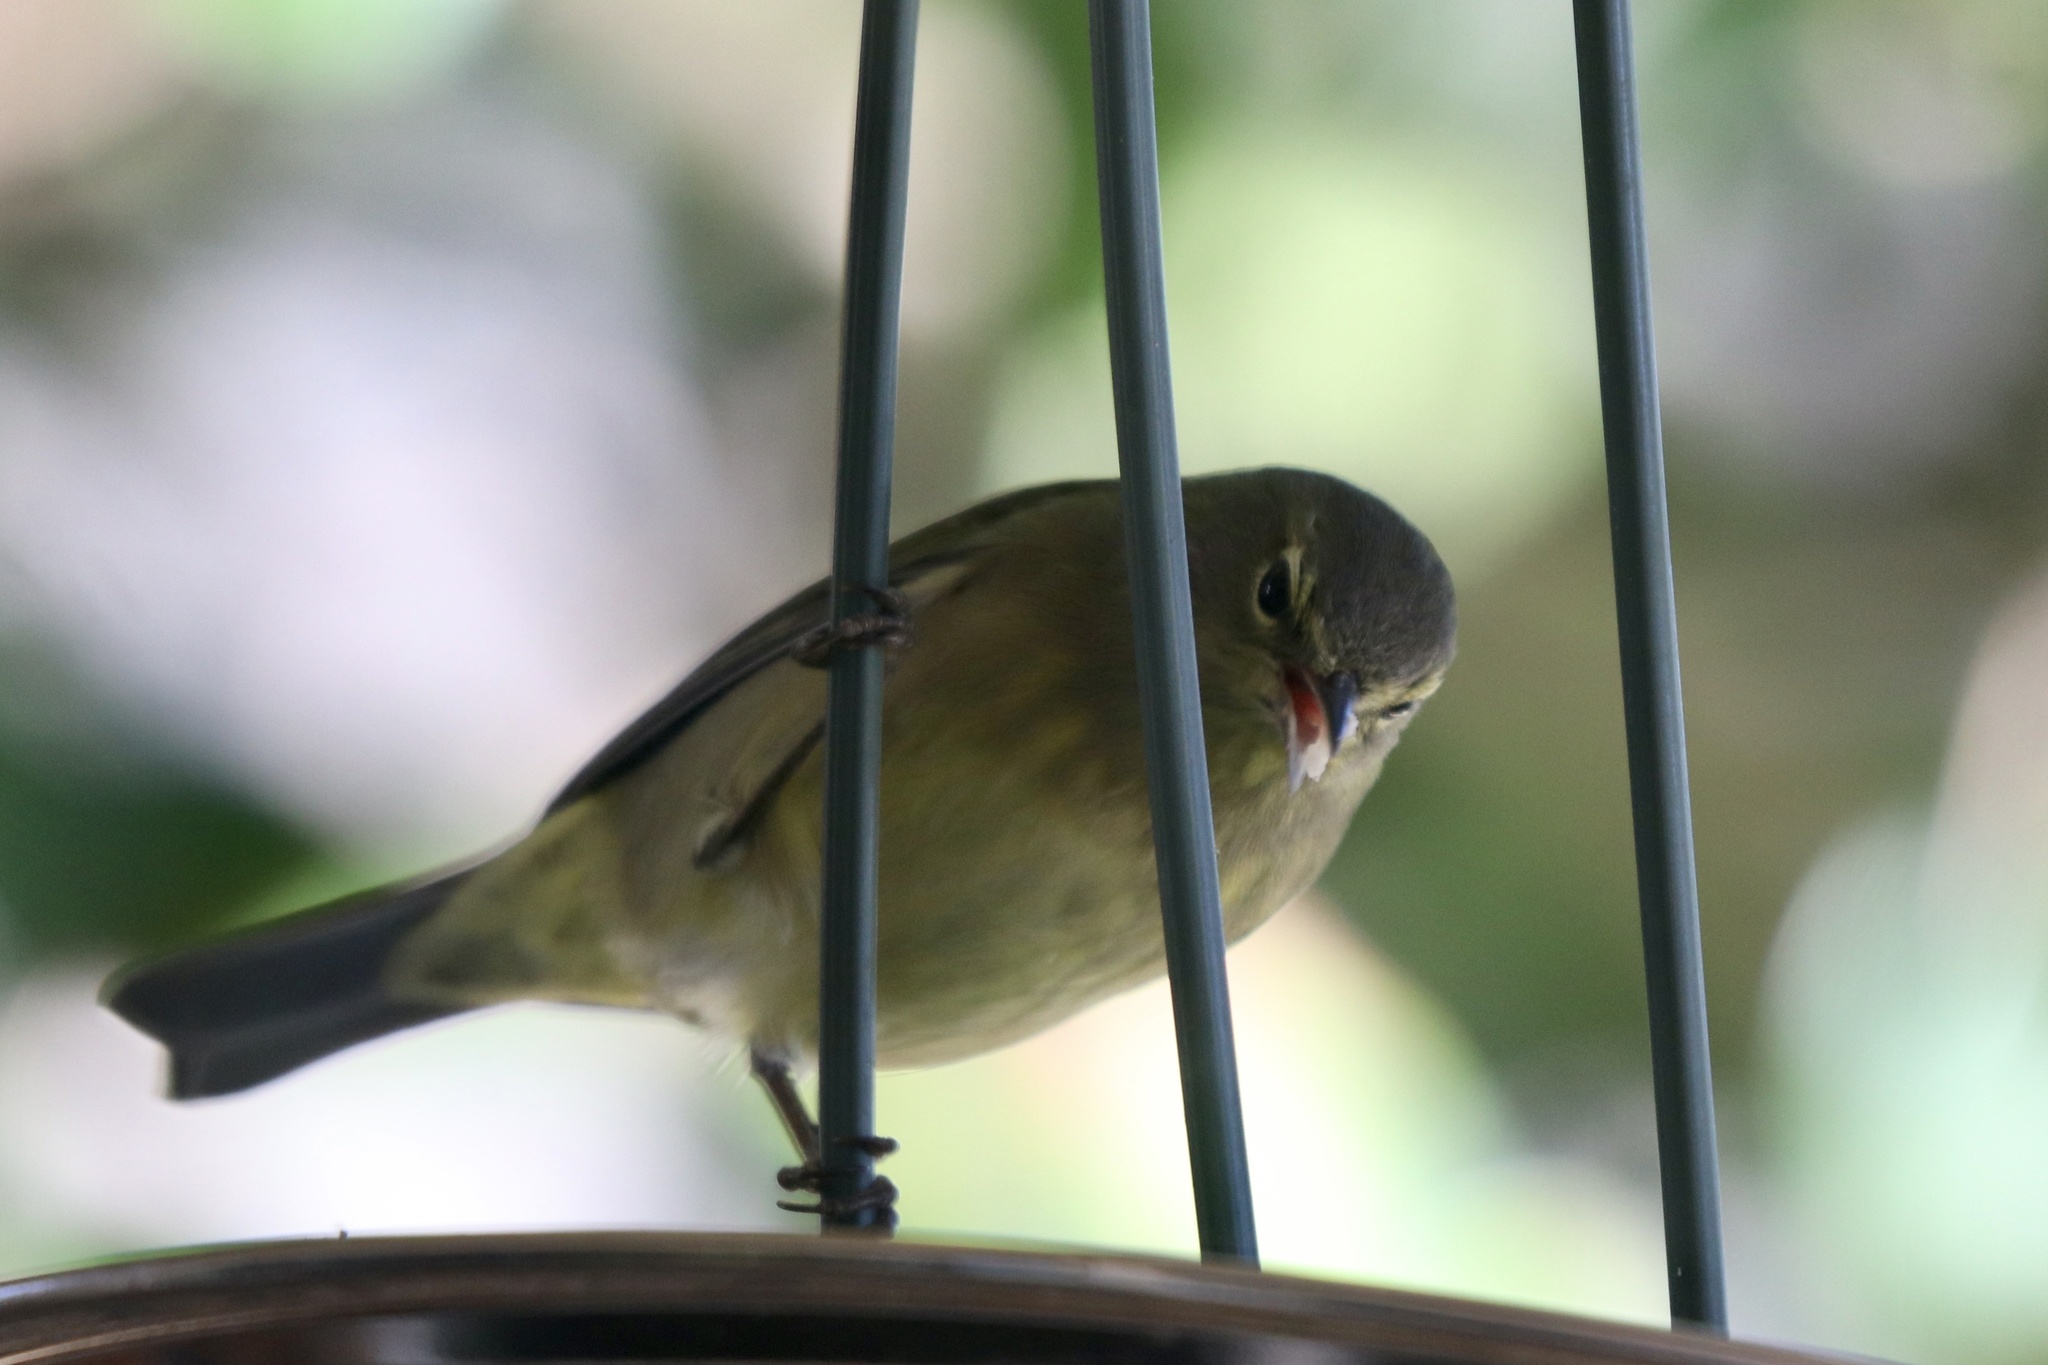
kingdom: Animalia
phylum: Chordata
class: Aves
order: Passeriformes
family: Parulidae
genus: Leiothlypis
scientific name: Leiothlypis celata
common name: Orange-crowned warbler
